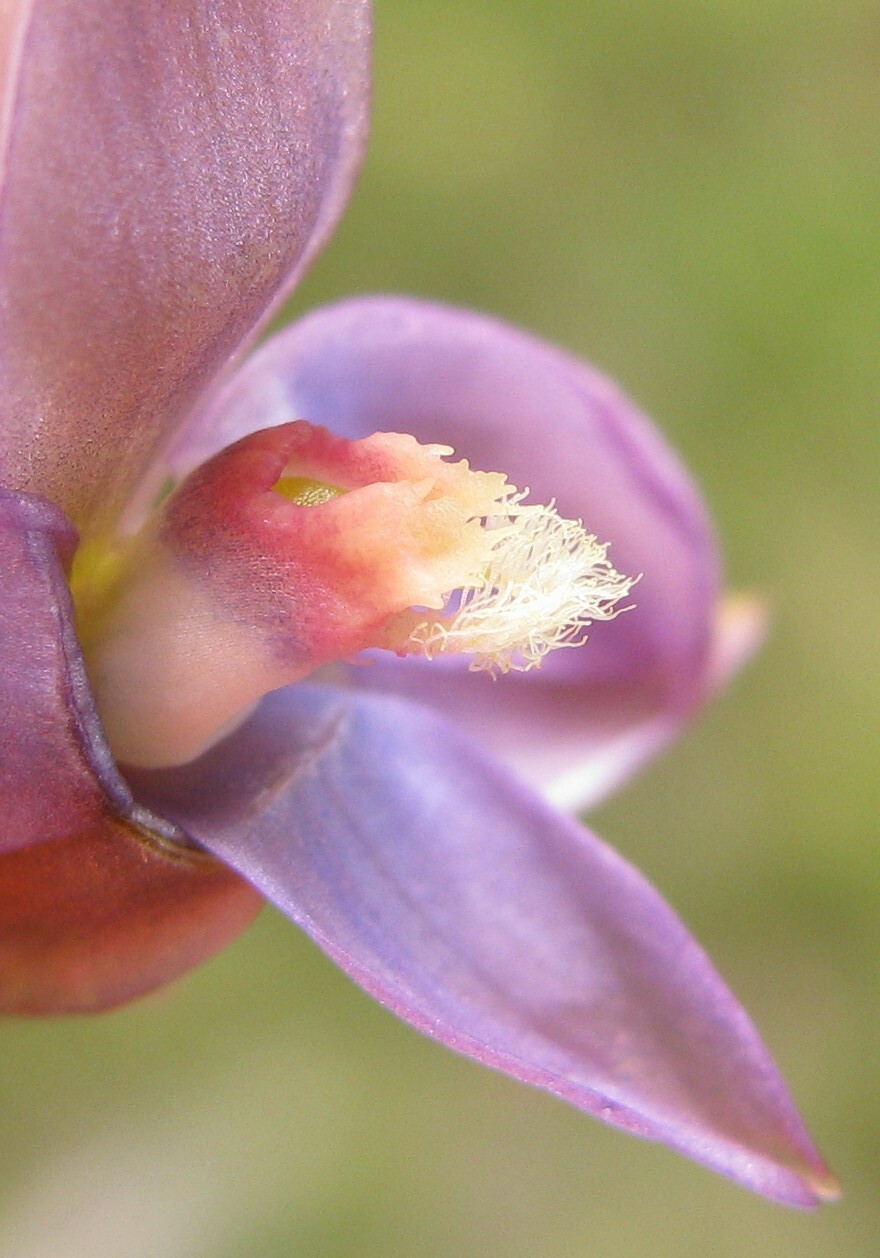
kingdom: Plantae
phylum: Tracheophyta
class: Liliopsida
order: Asparagales
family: Orchidaceae
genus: Thelymitra
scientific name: Thelymitra circumsepta
